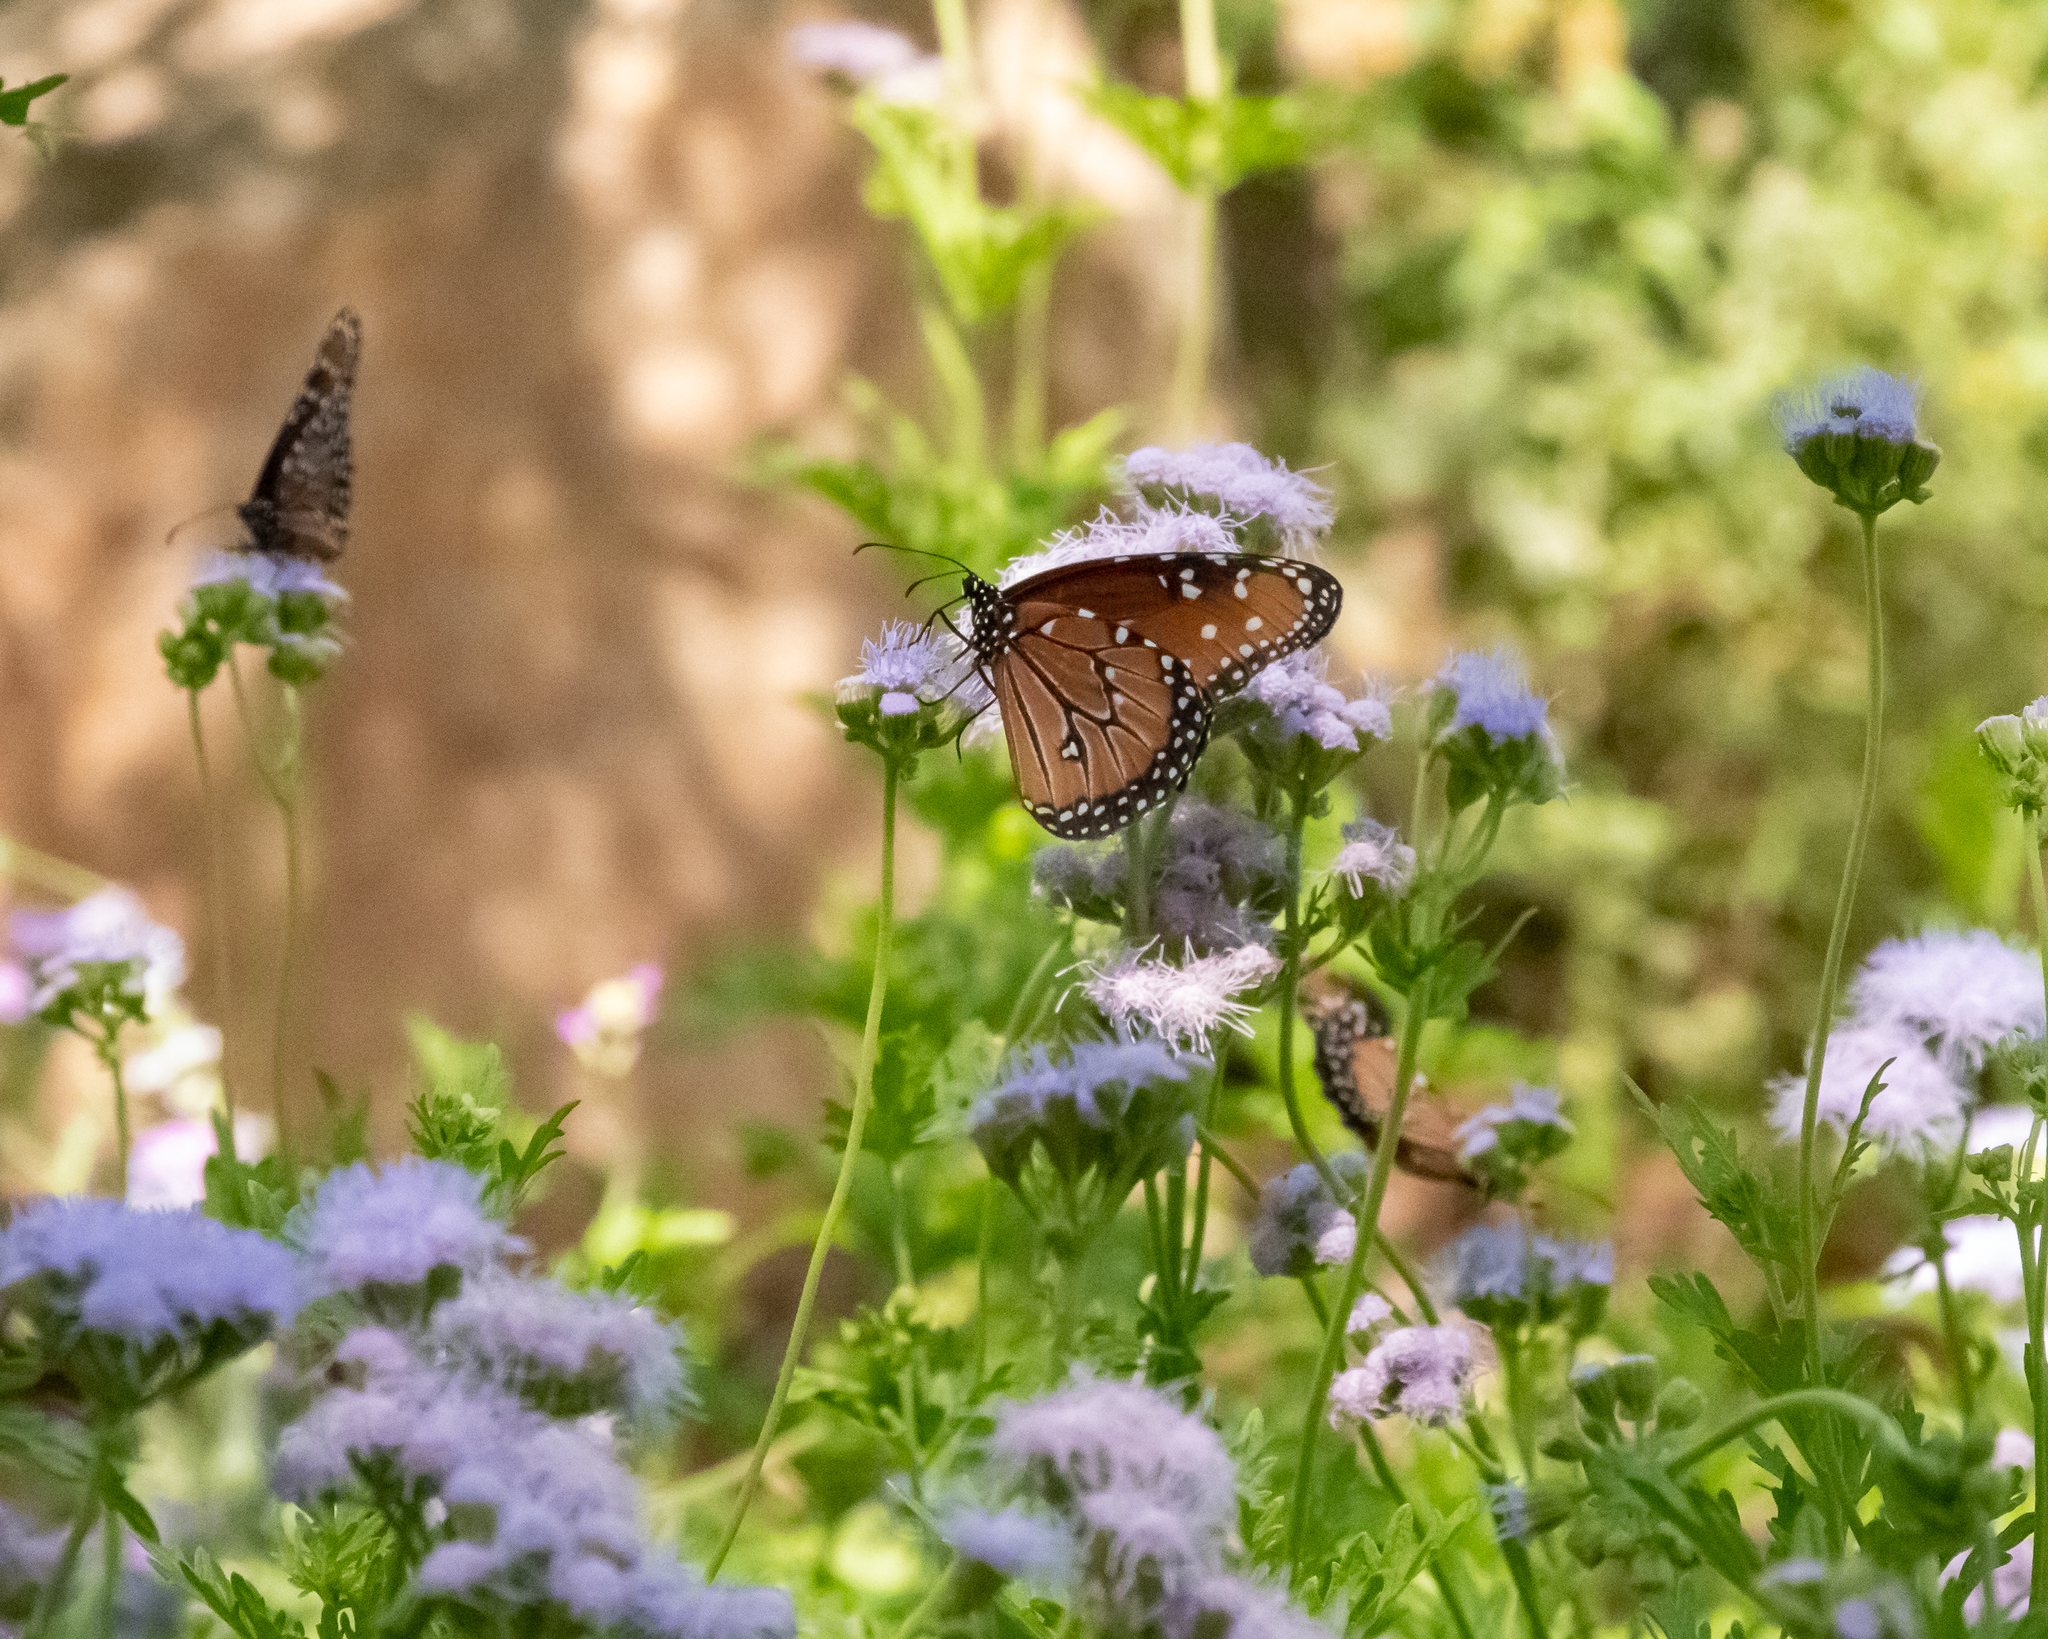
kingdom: Animalia
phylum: Arthropoda
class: Insecta
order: Lepidoptera
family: Nymphalidae
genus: Danaus
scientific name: Danaus gilippus
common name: Queen
